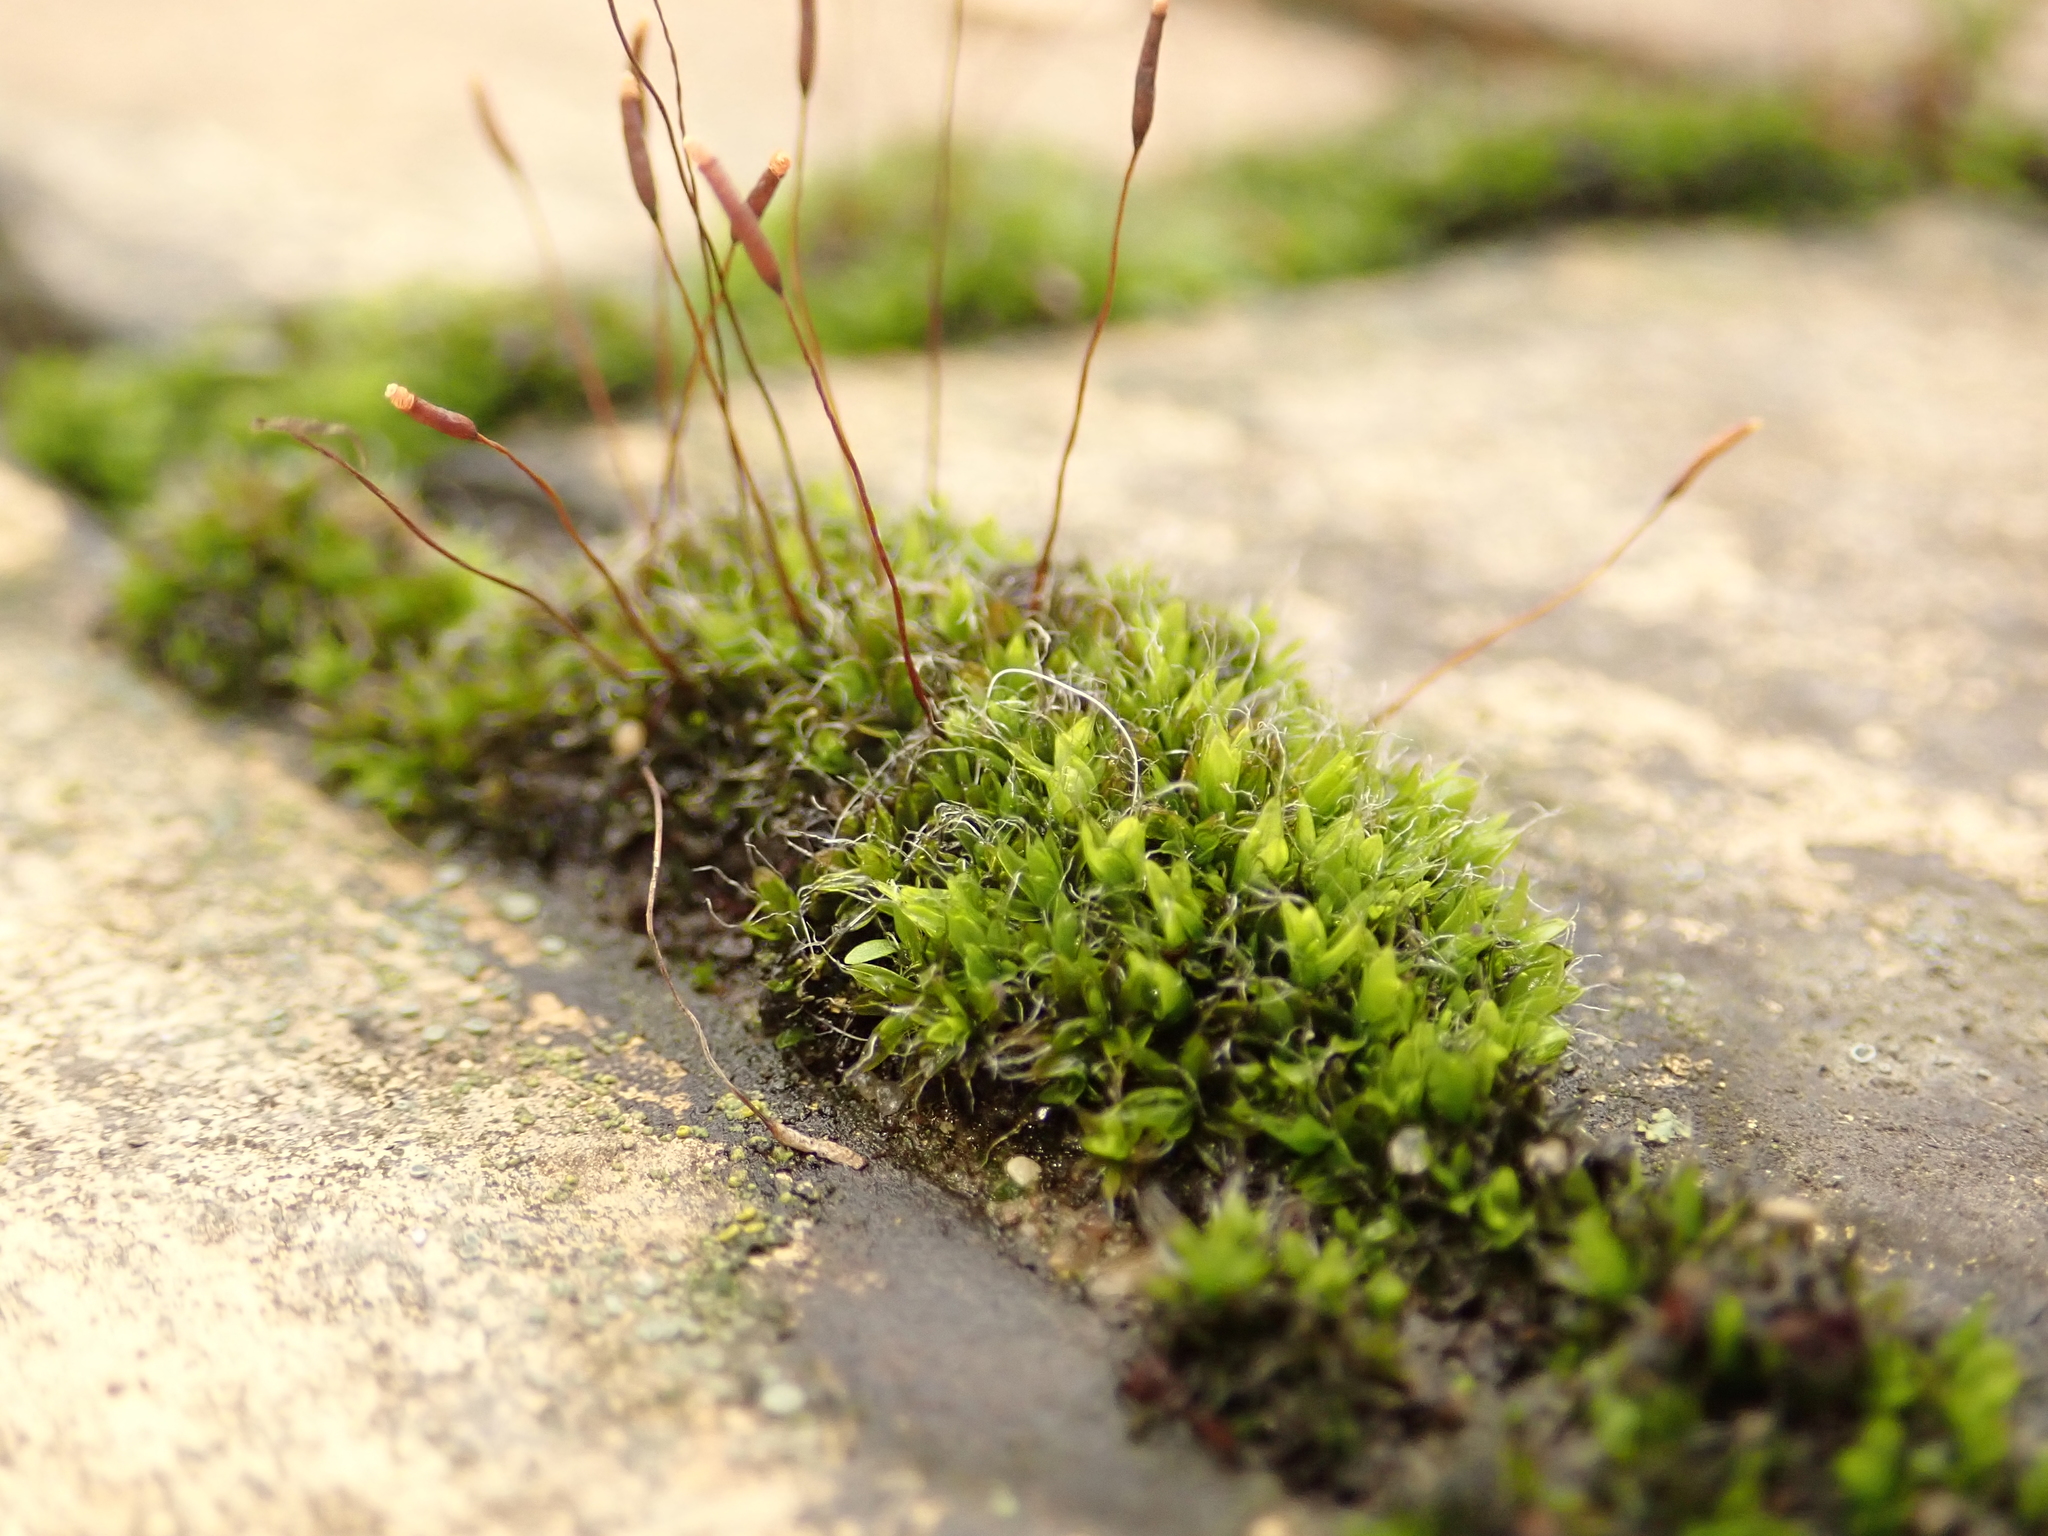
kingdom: Plantae
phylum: Bryophyta
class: Bryopsida
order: Pottiales
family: Pottiaceae
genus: Tortula
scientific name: Tortula muralis
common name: Wall screw-moss
